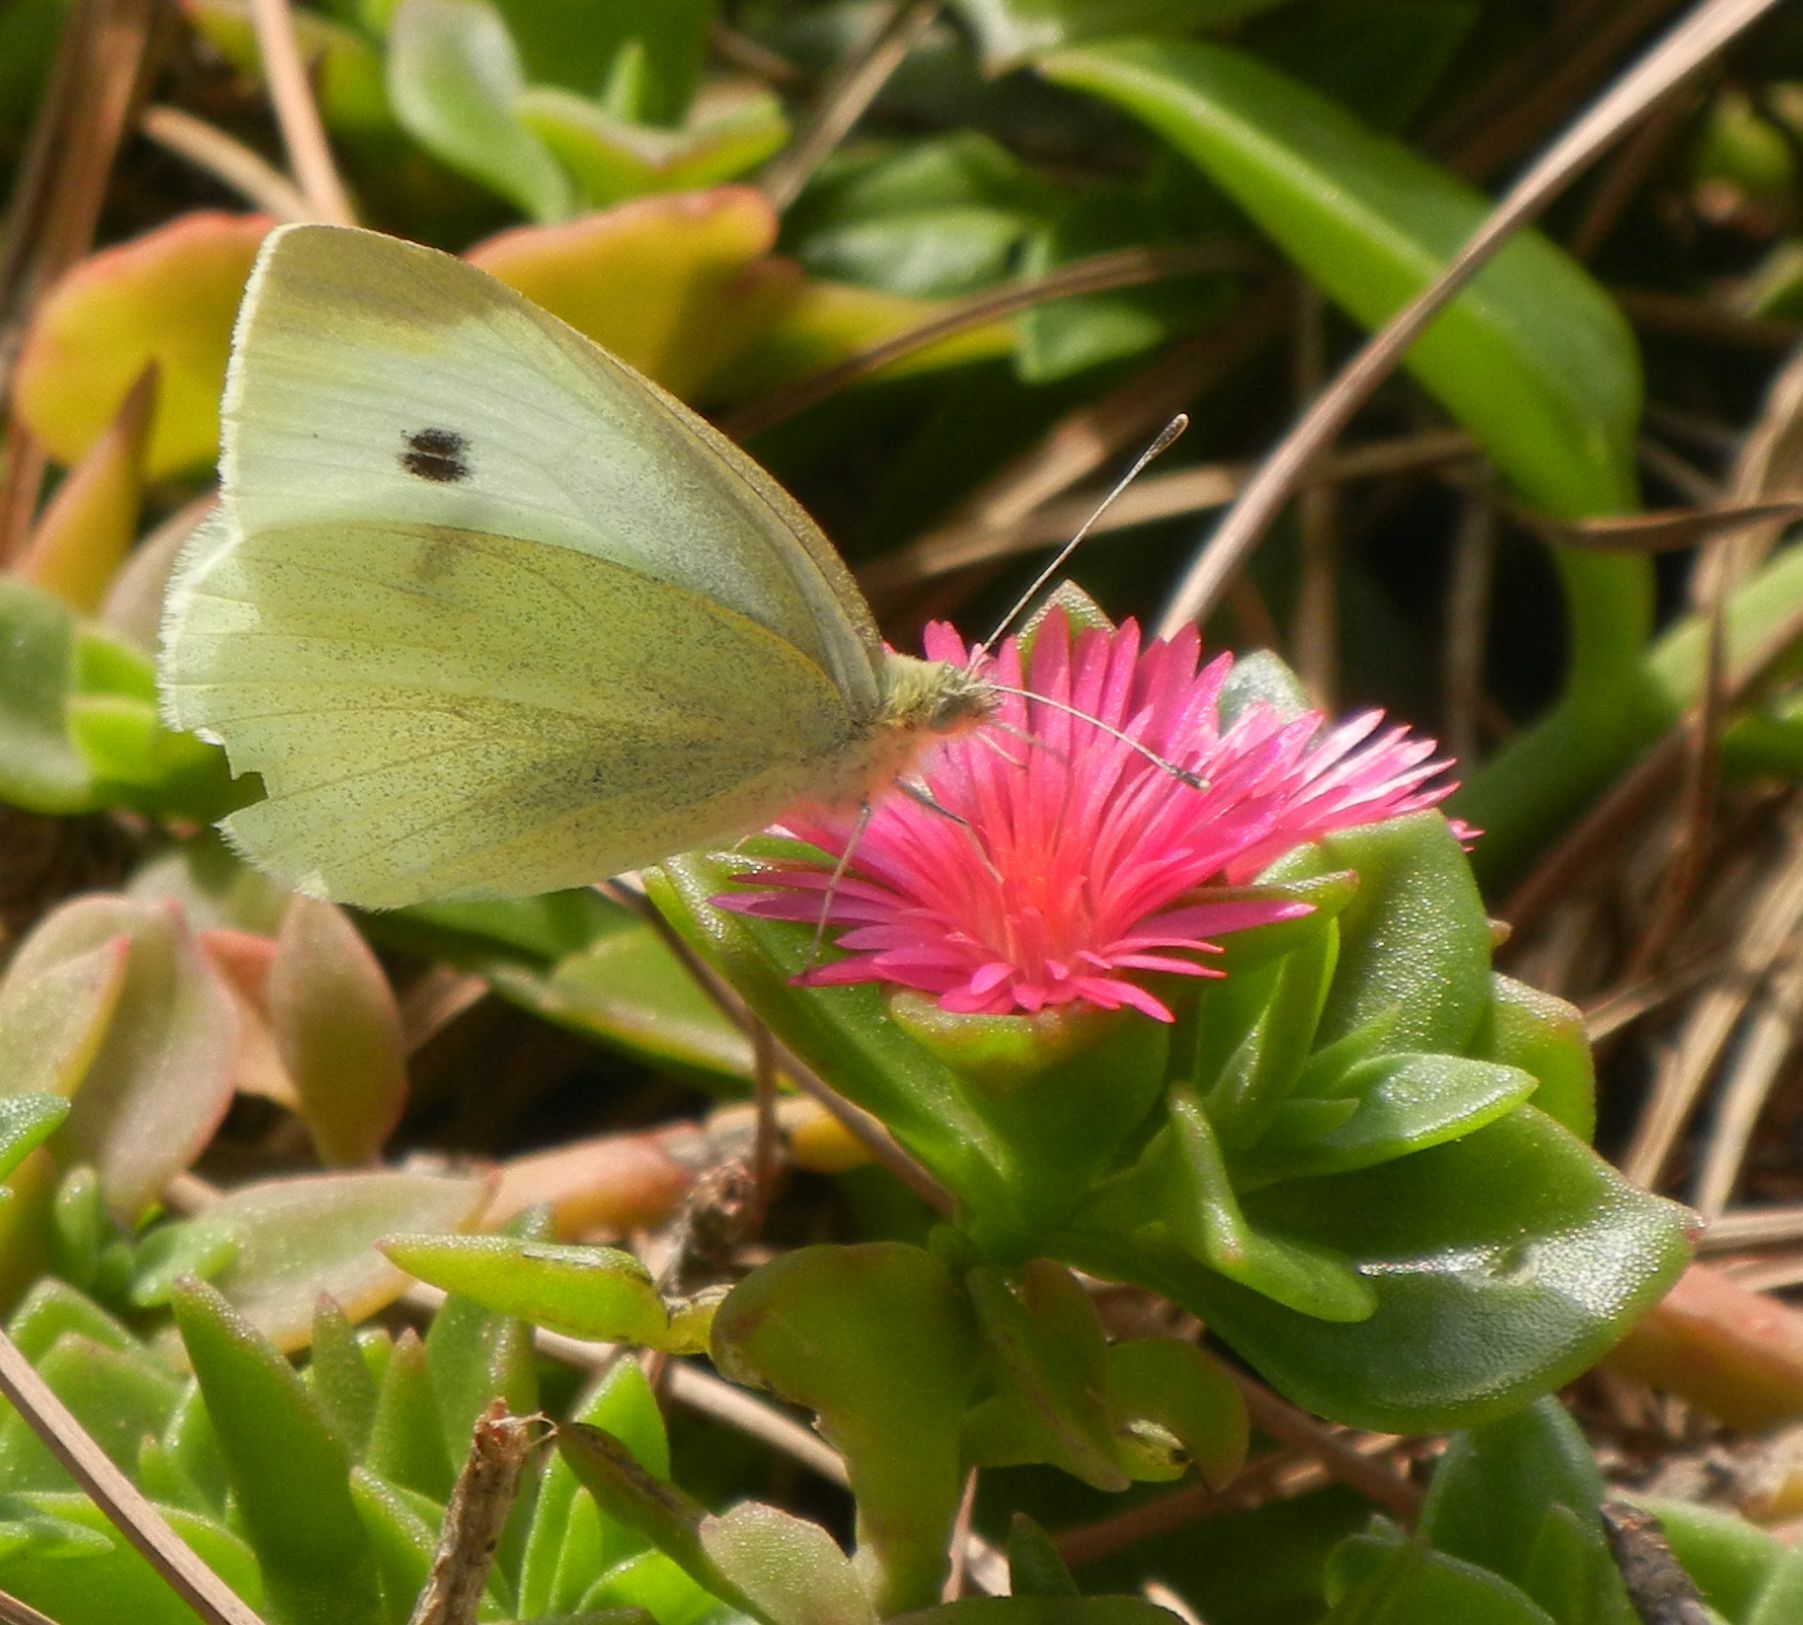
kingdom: Animalia
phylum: Arthropoda
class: Insecta
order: Lepidoptera
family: Pieridae
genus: Pieris
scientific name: Pieris rapae
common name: Small white
